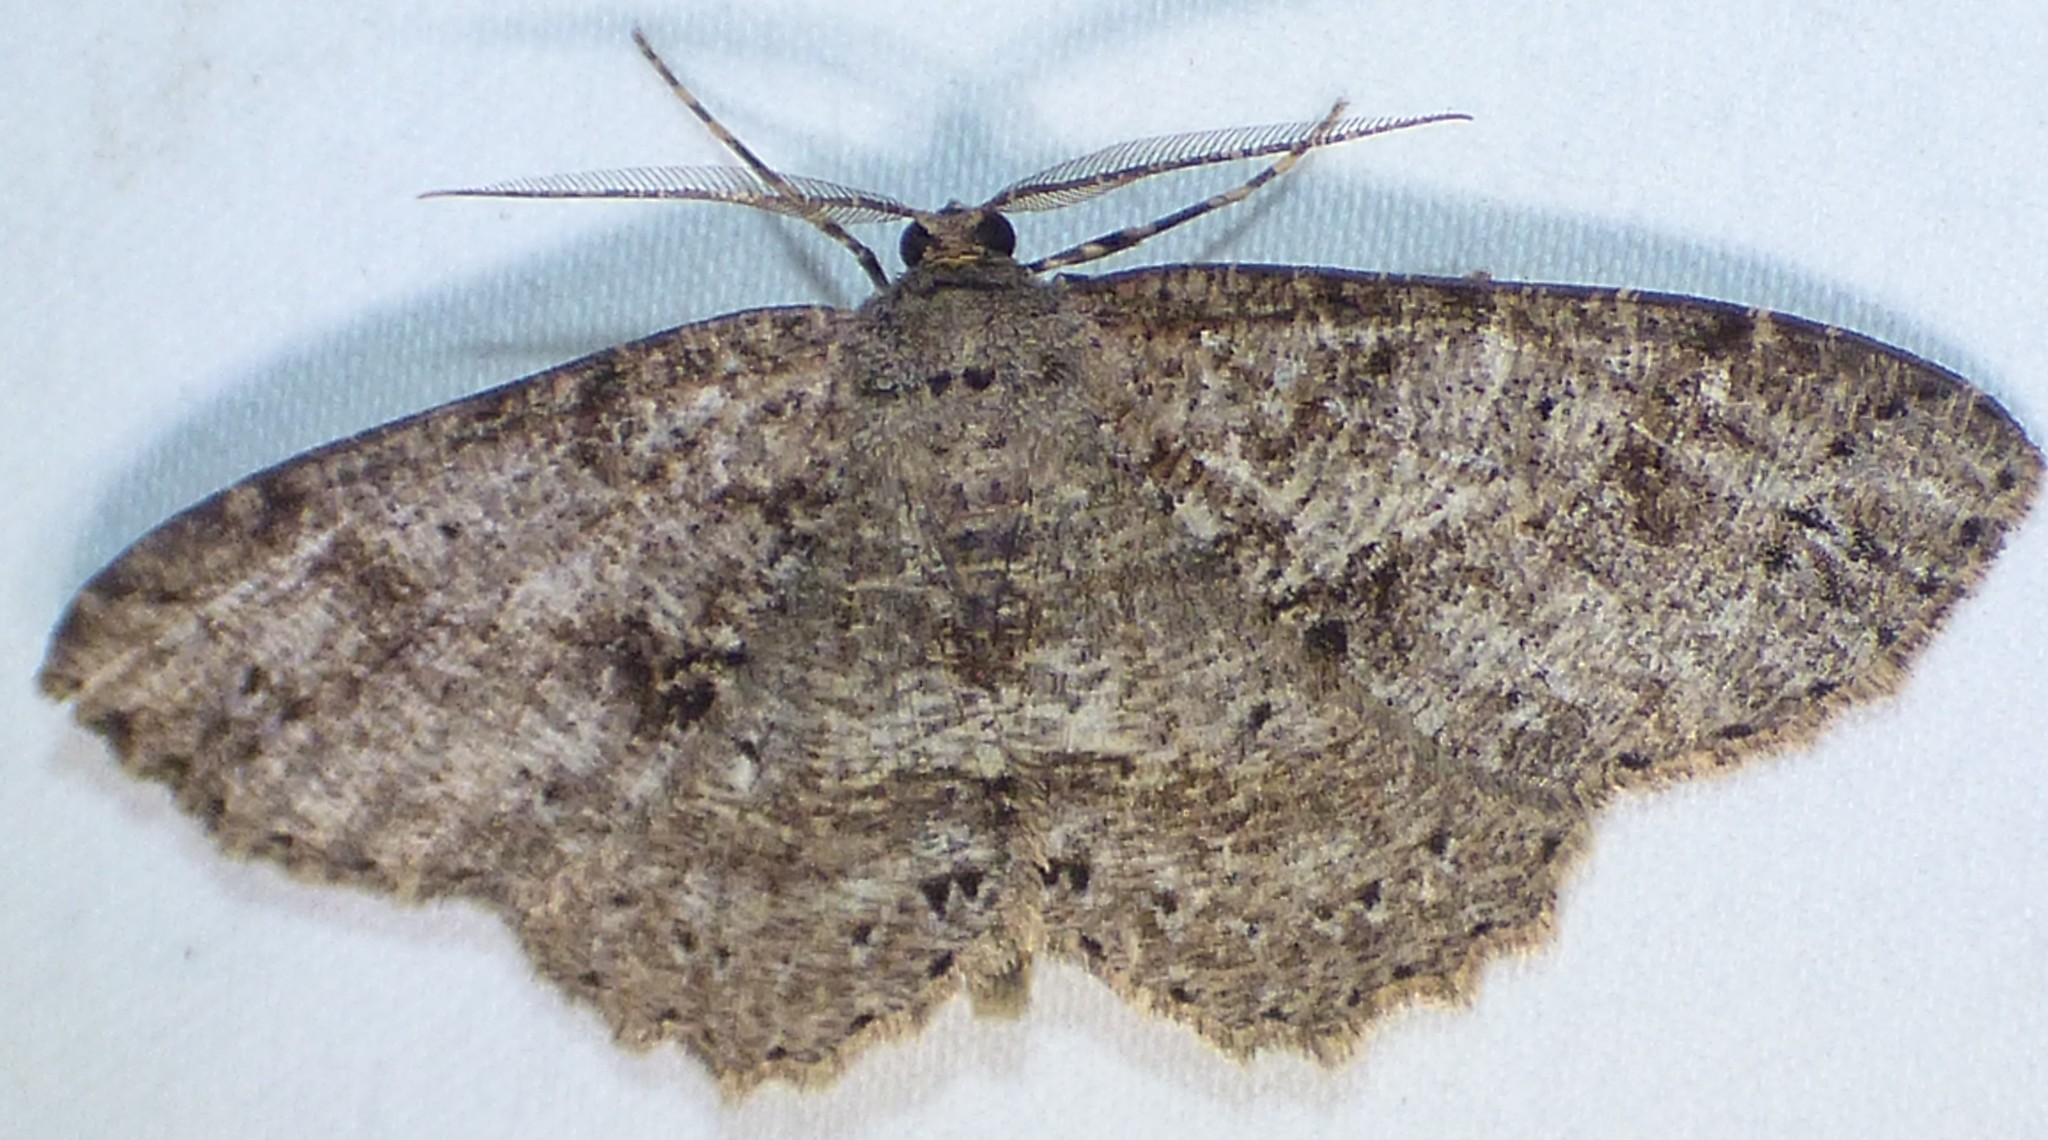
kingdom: Animalia
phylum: Arthropoda
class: Insecta
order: Lepidoptera
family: Geometridae
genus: Melanolophia
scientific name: Melanolophia canadaria
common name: Canadian melanolophia
